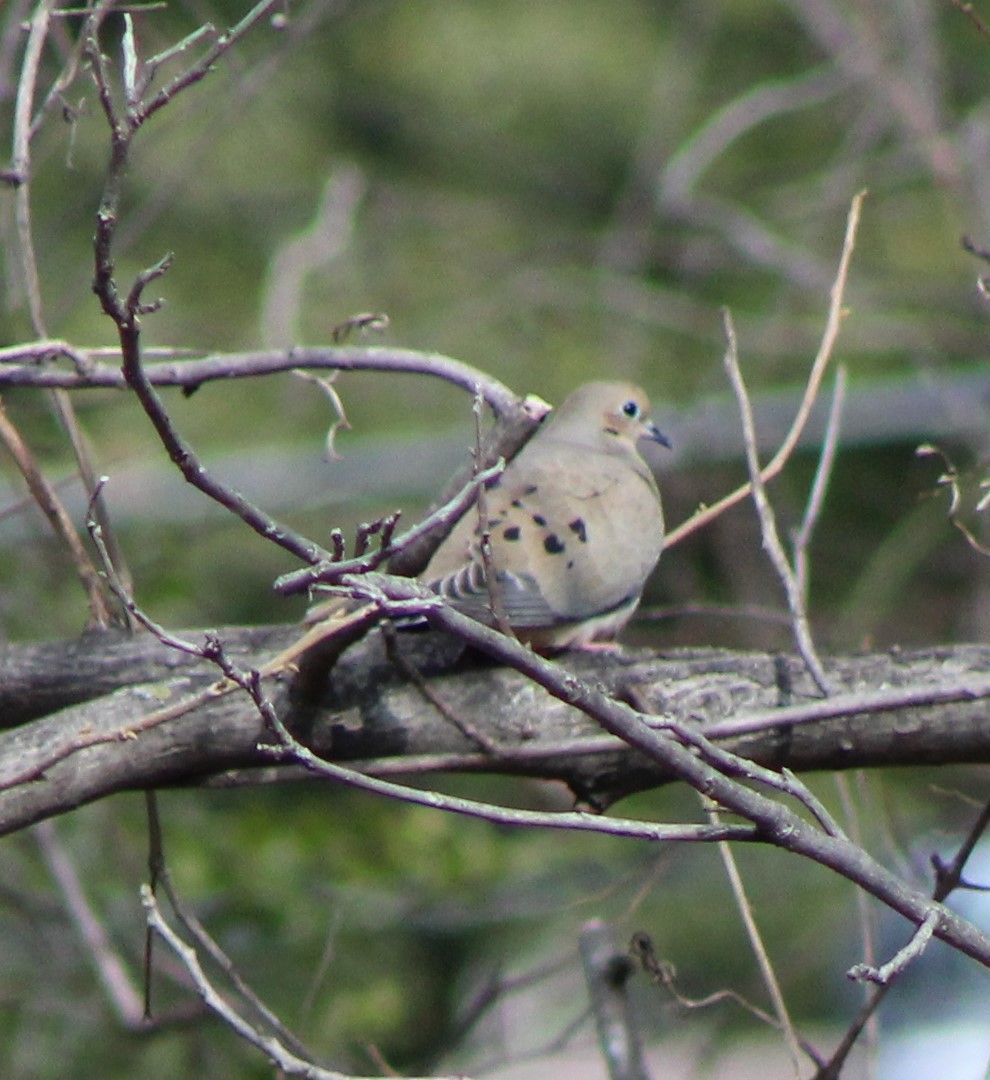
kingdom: Animalia
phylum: Chordata
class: Aves
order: Columbiformes
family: Columbidae
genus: Zenaida
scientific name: Zenaida macroura
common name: Mourning dove
